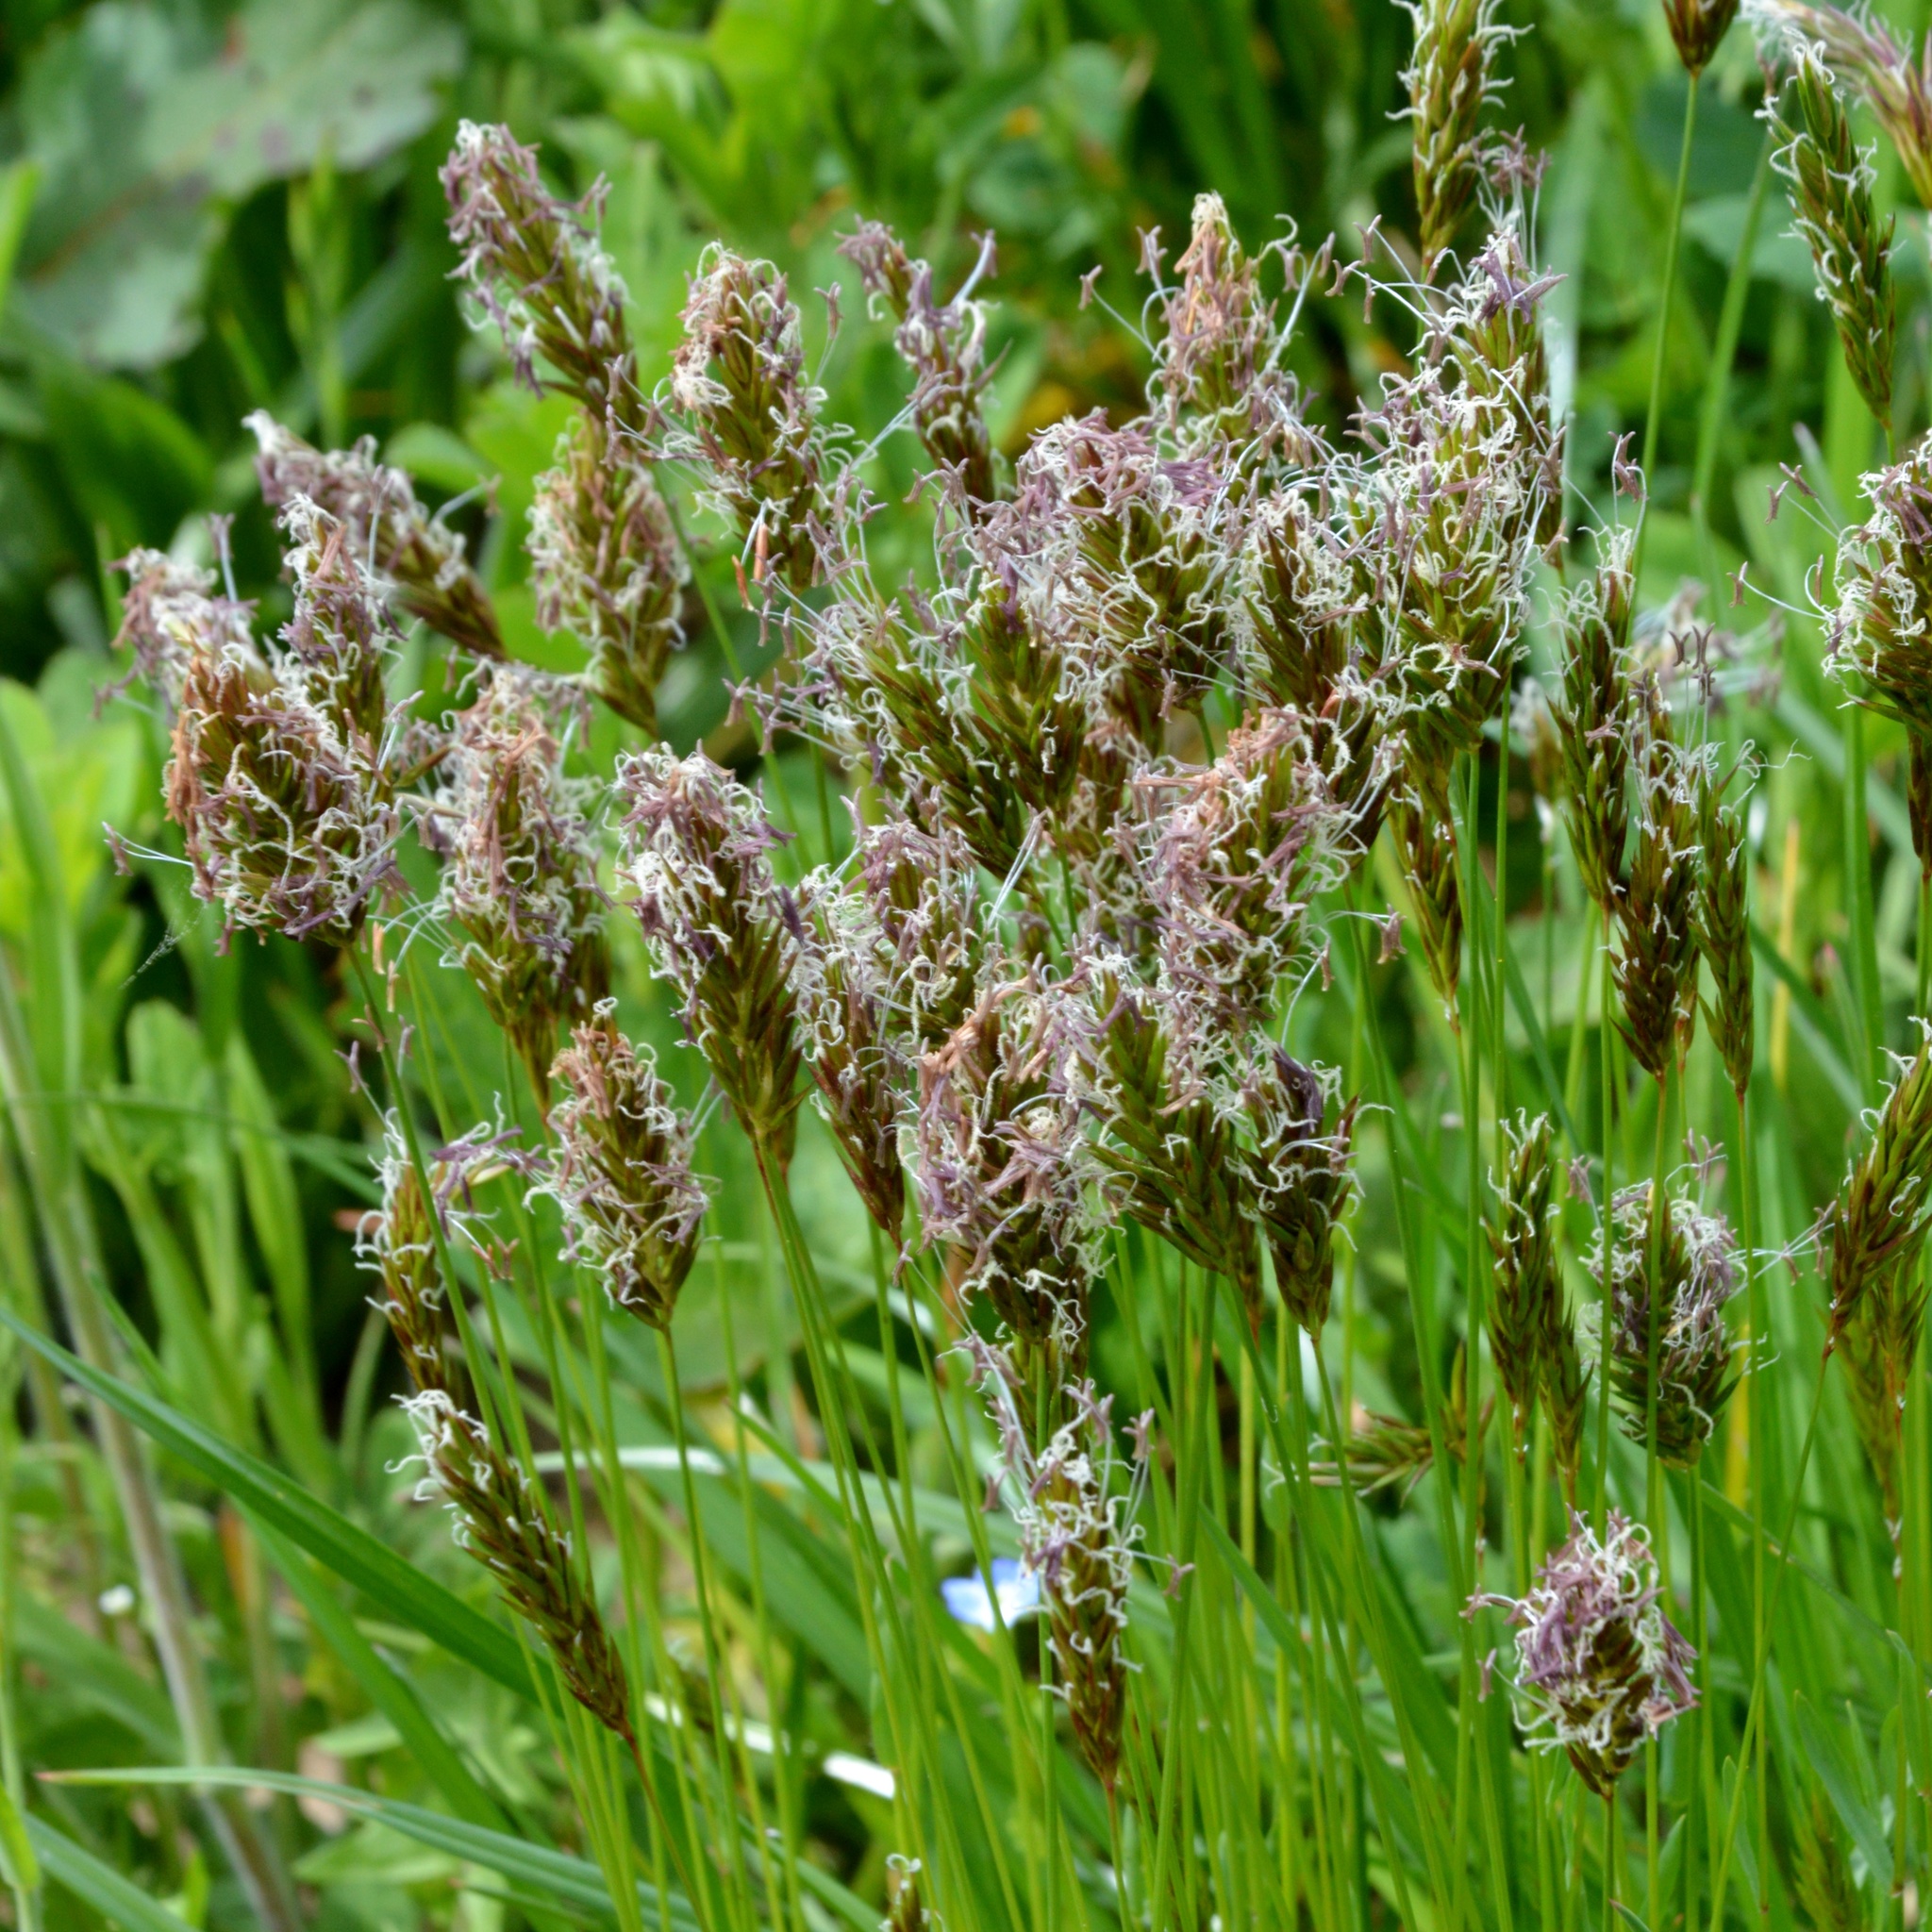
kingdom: Plantae
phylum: Tracheophyta
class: Liliopsida
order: Poales
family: Poaceae
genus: Anthoxanthum
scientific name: Anthoxanthum odoratum
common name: Sweet vernalgrass
